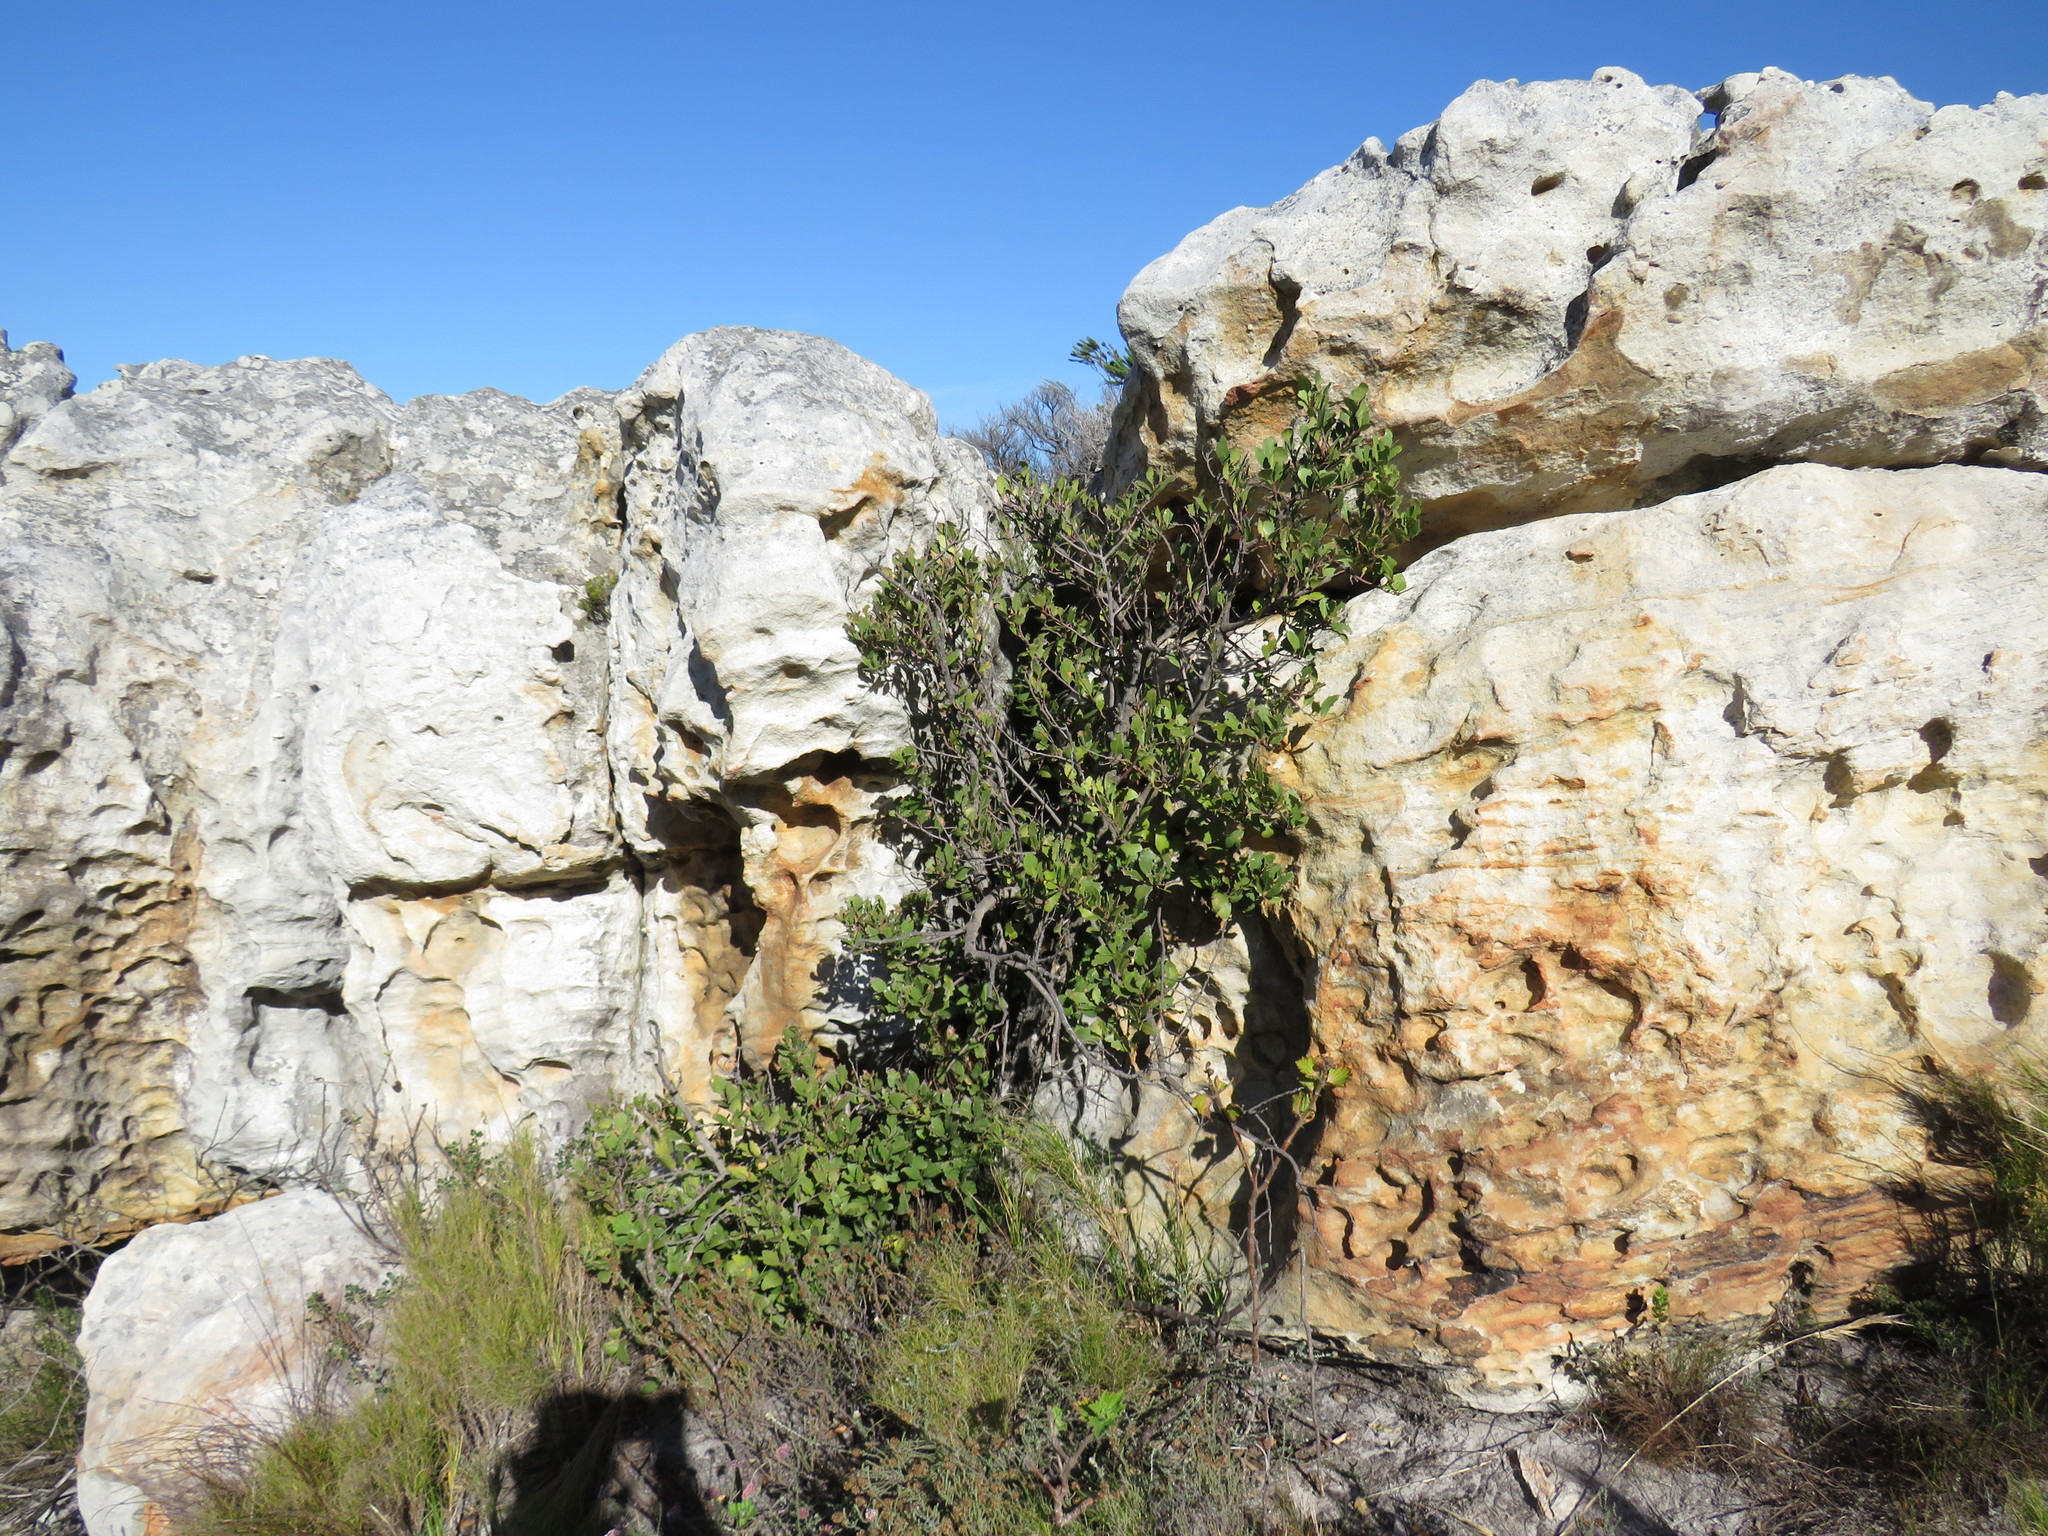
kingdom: Plantae
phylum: Tracheophyta
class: Magnoliopsida
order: Celastrales
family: Celastraceae
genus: Gymnosporia
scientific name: Gymnosporia laurina
